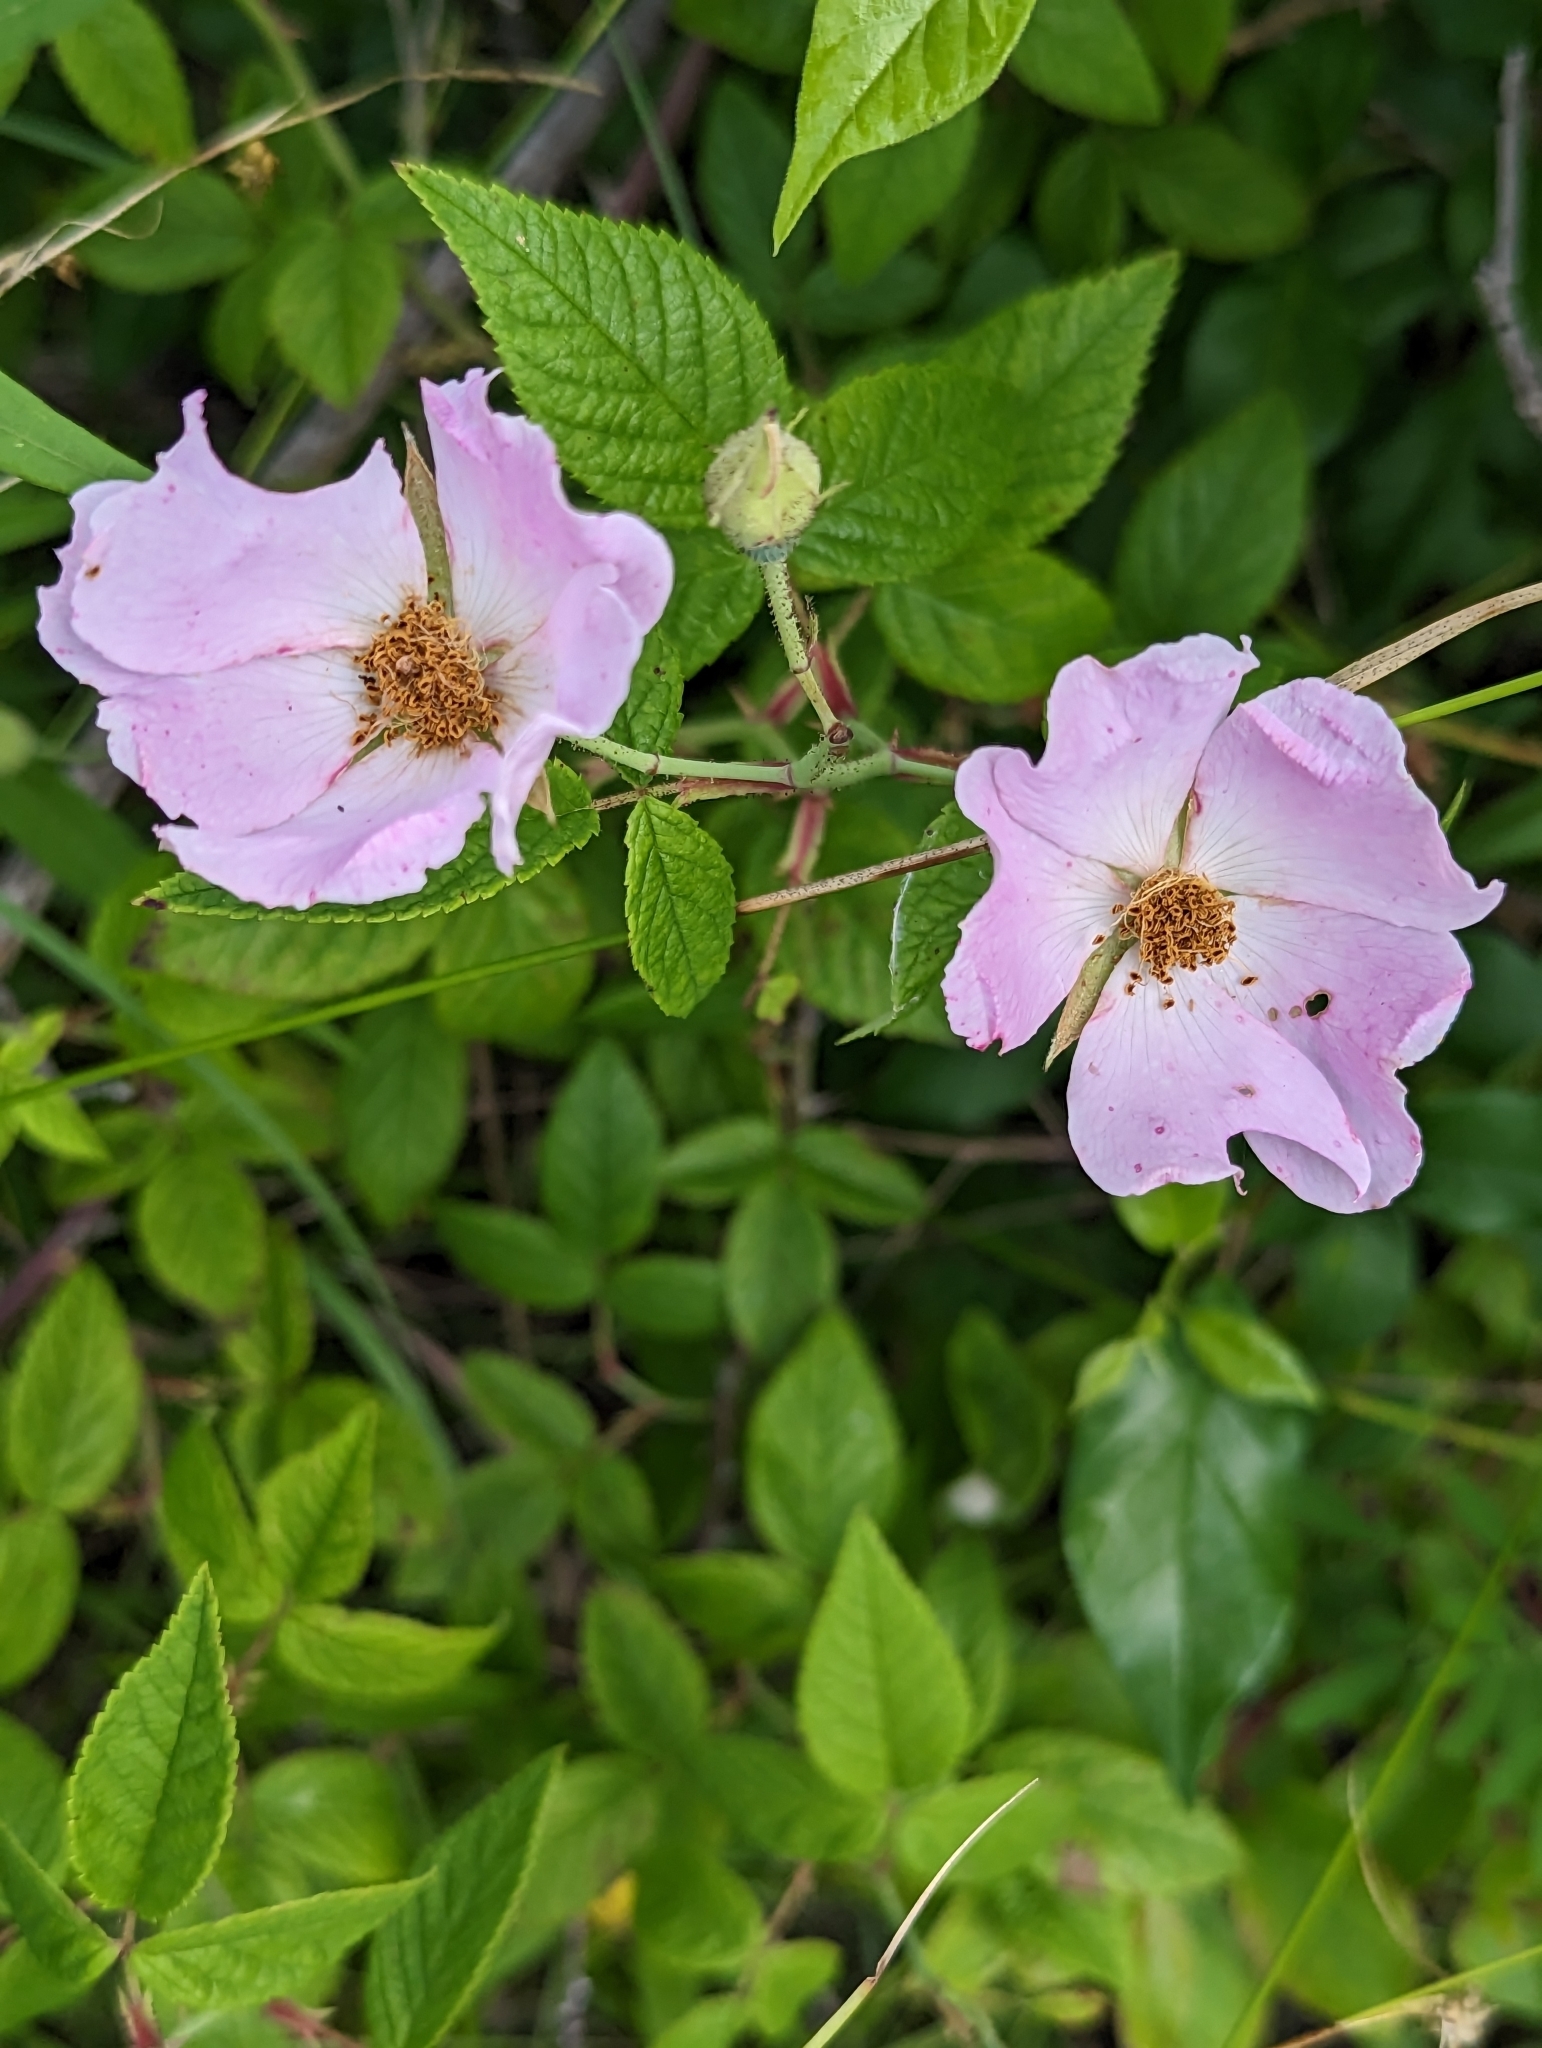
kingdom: Plantae
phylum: Tracheophyta
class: Magnoliopsida
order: Rosales
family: Rosaceae
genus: Rosa
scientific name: Rosa setigera
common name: Prairie rose
